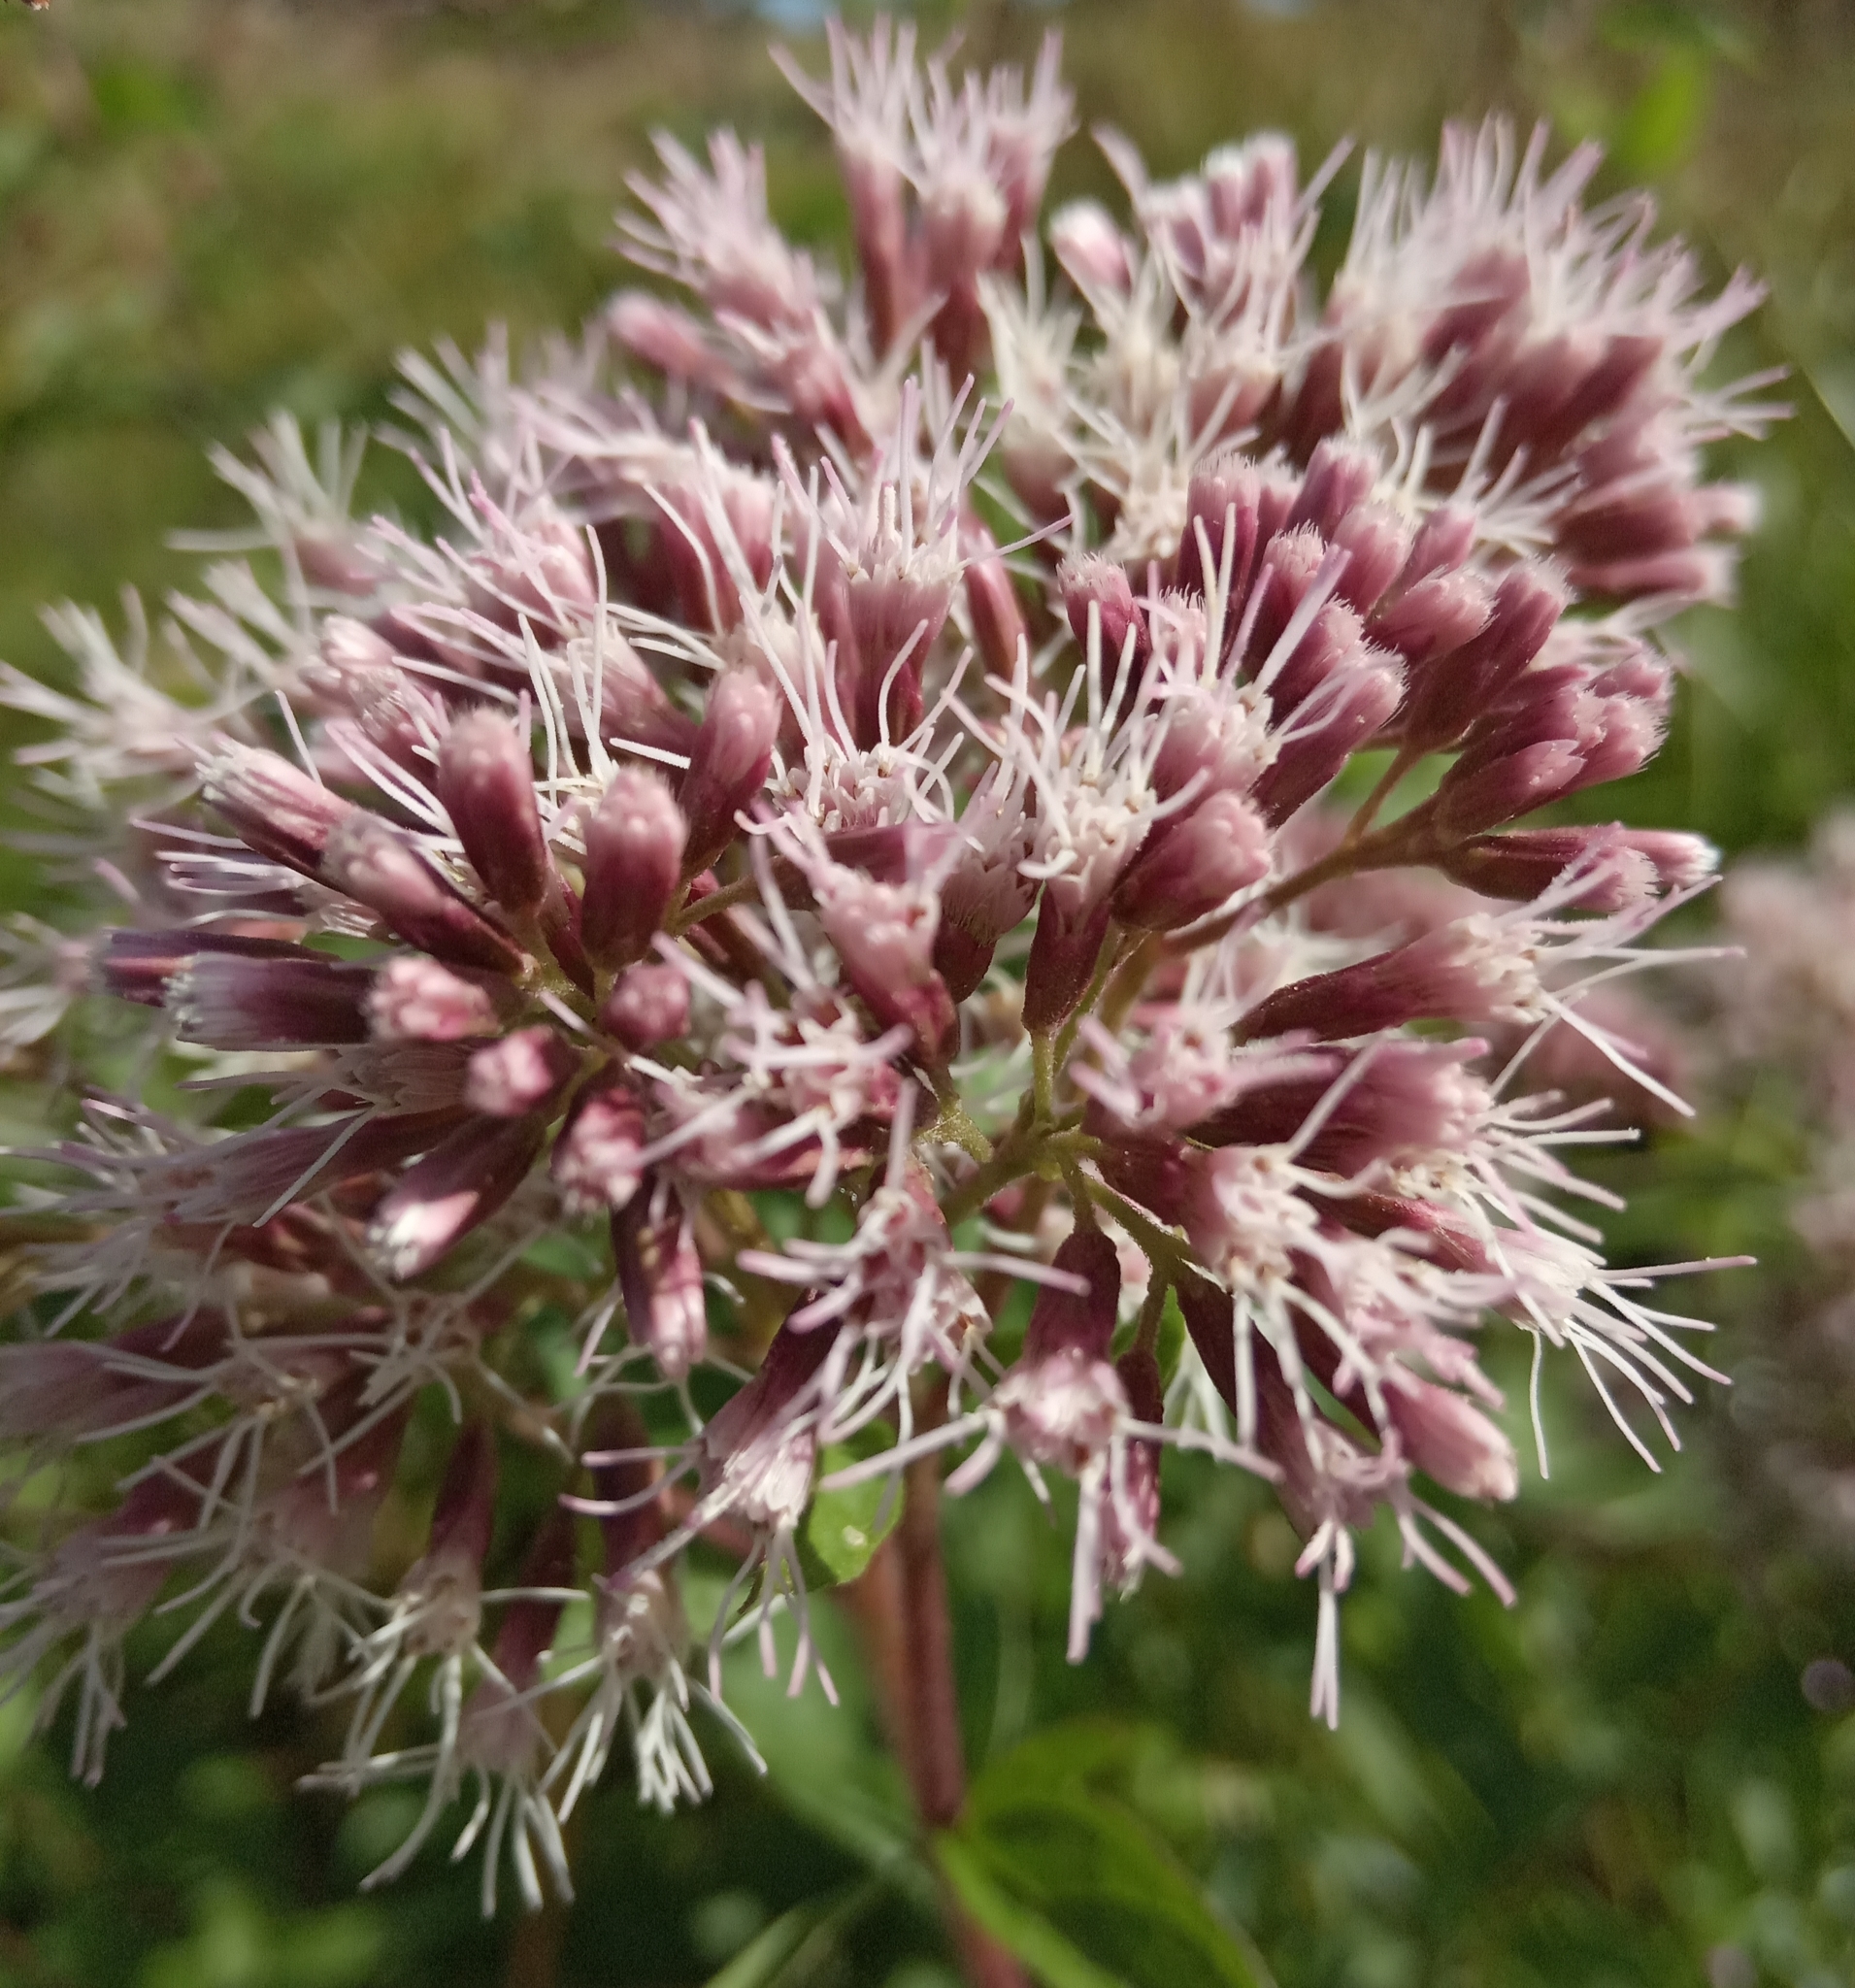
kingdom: Plantae
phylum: Tracheophyta
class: Magnoliopsida
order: Asterales
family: Asteraceae
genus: Eupatorium
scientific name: Eupatorium cannabinum
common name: Hemp-agrimony
